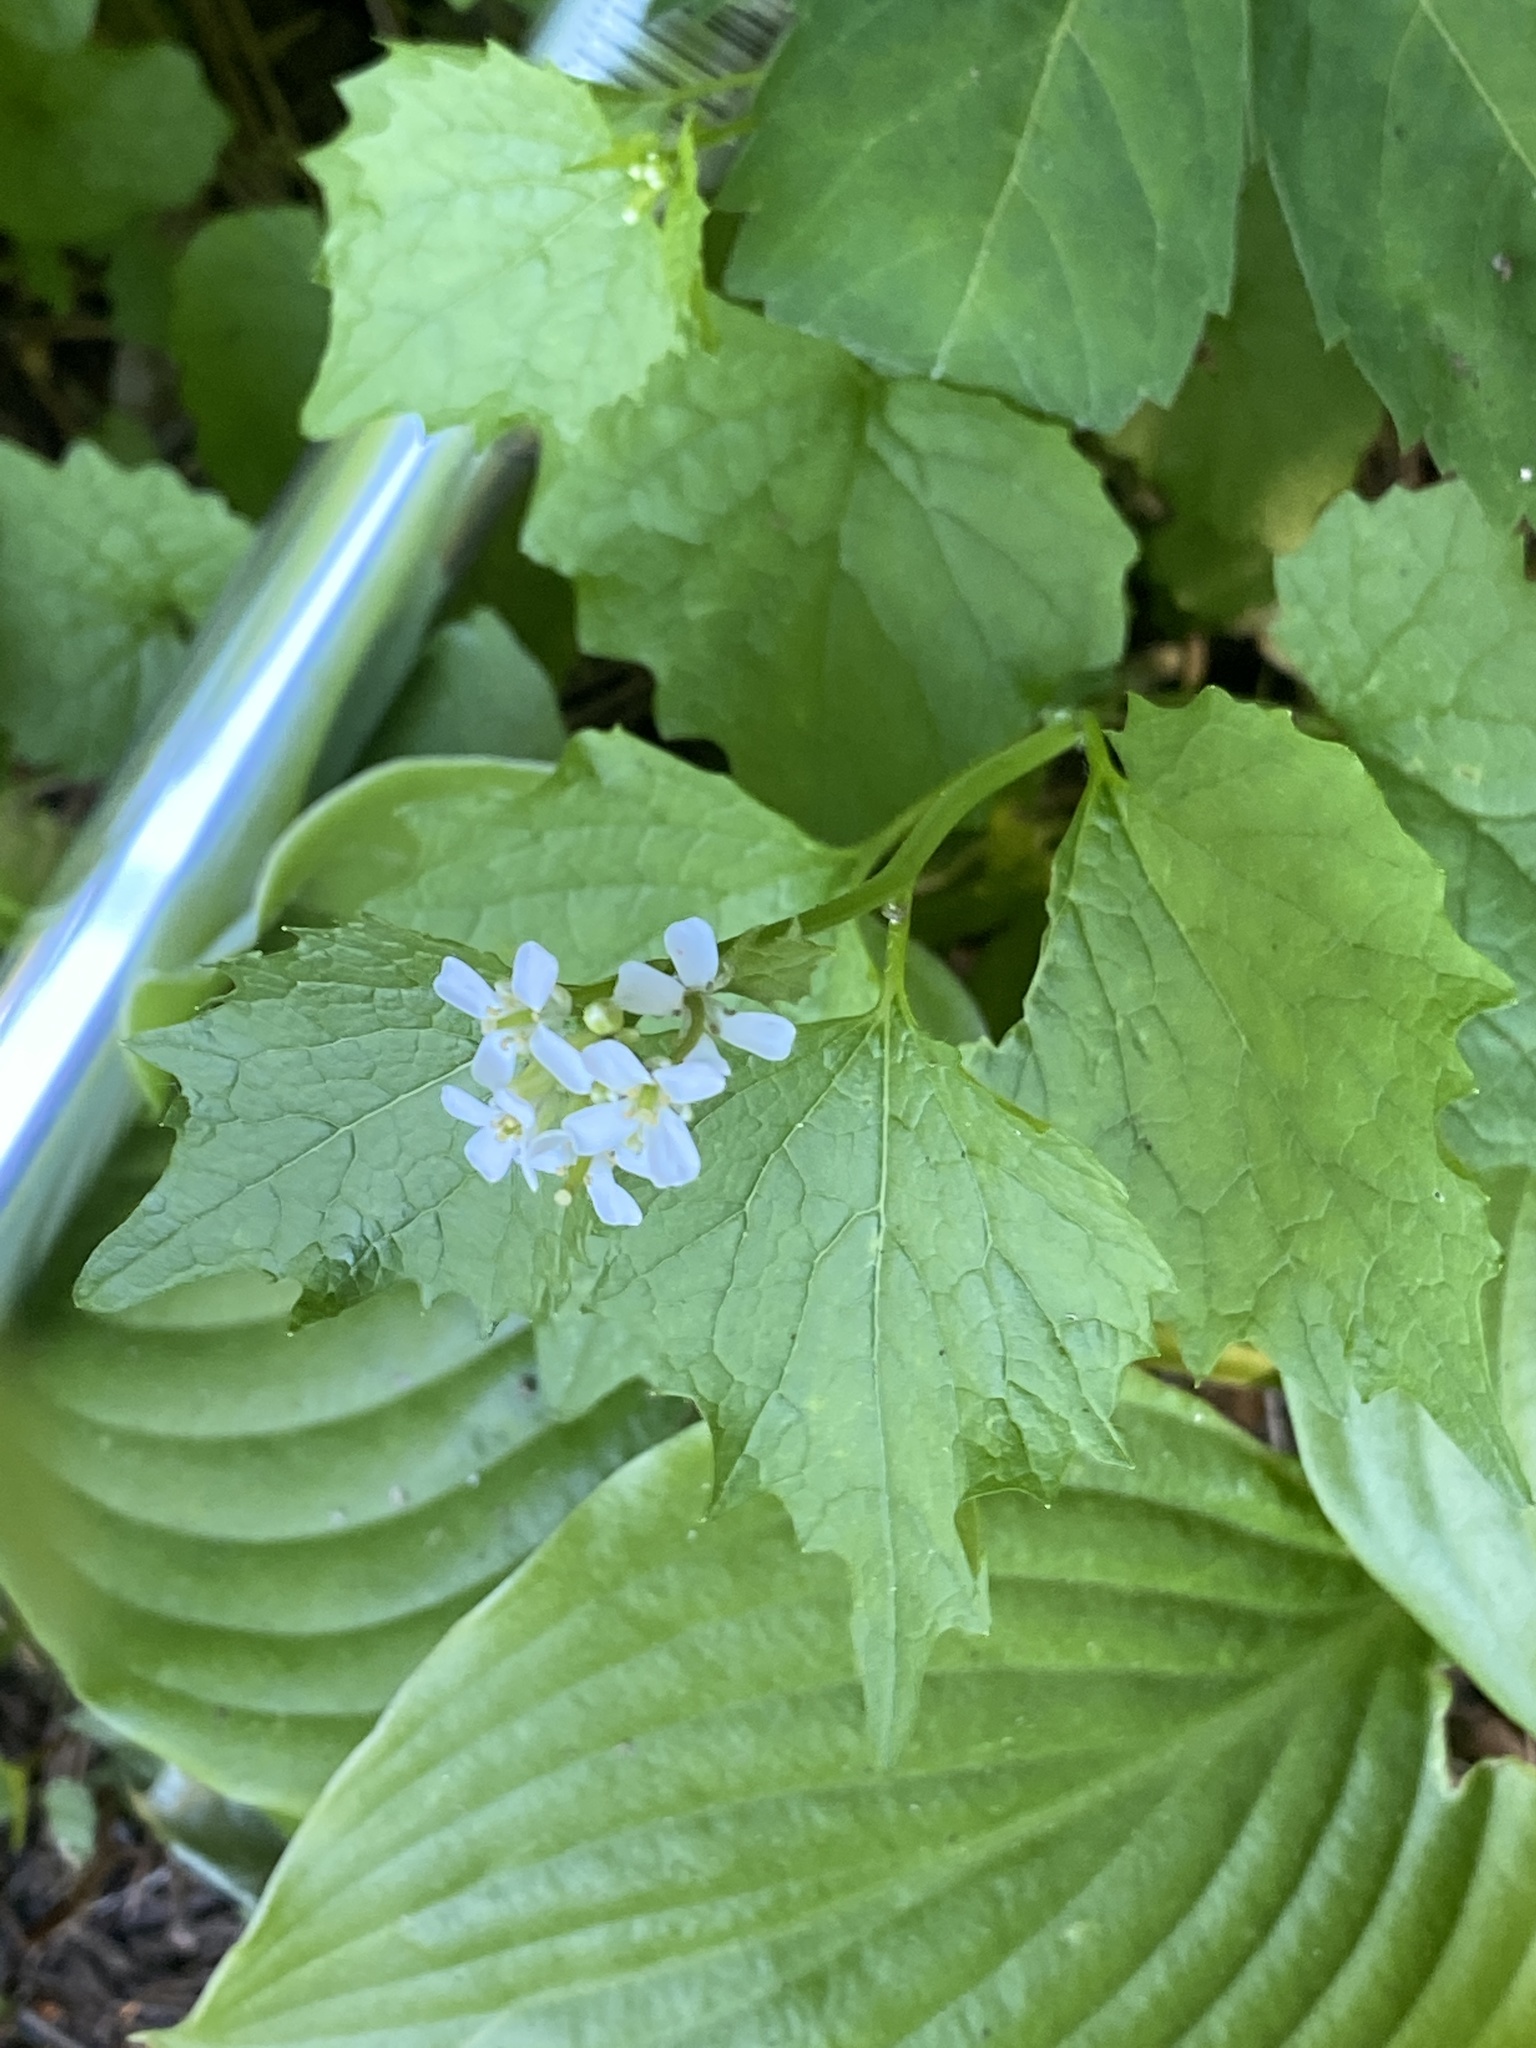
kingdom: Plantae
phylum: Tracheophyta
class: Magnoliopsida
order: Brassicales
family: Brassicaceae
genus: Alliaria
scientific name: Alliaria petiolata
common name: Garlic mustard
